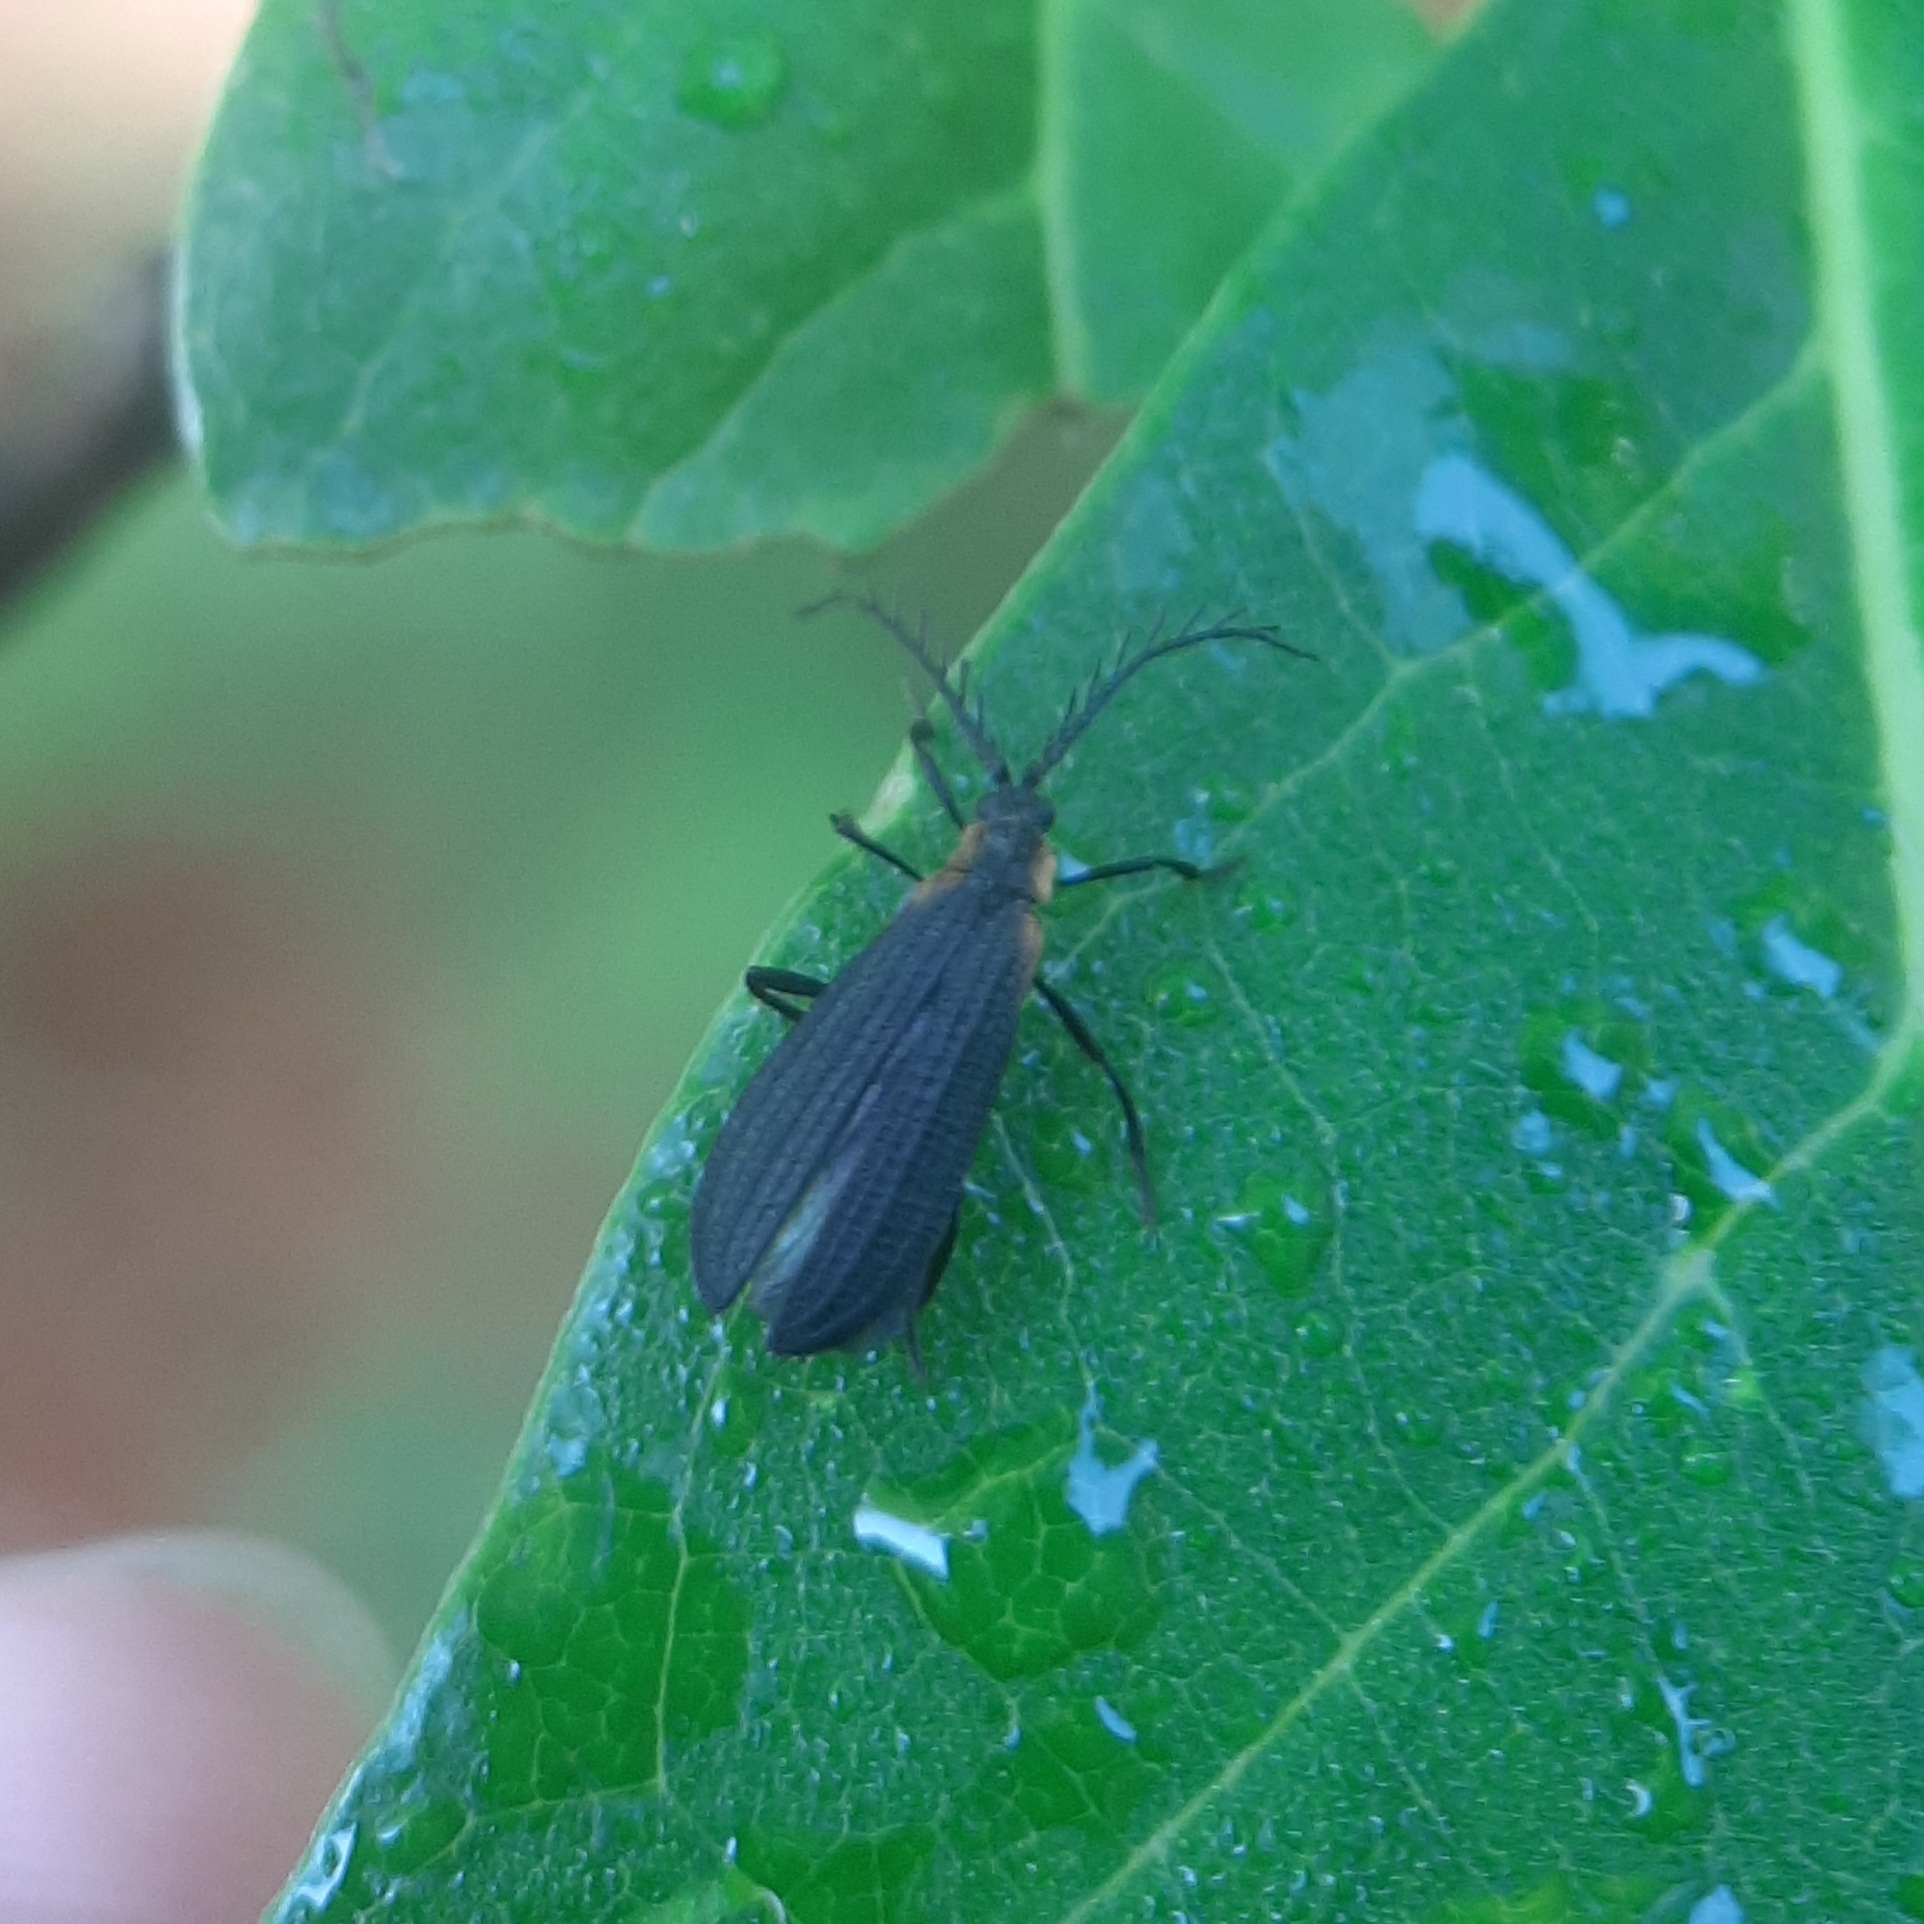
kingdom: Animalia
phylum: Arthropoda
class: Insecta
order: Coleoptera
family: Lycidae
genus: Leptoceletes
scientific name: Leptoceletes basalis
